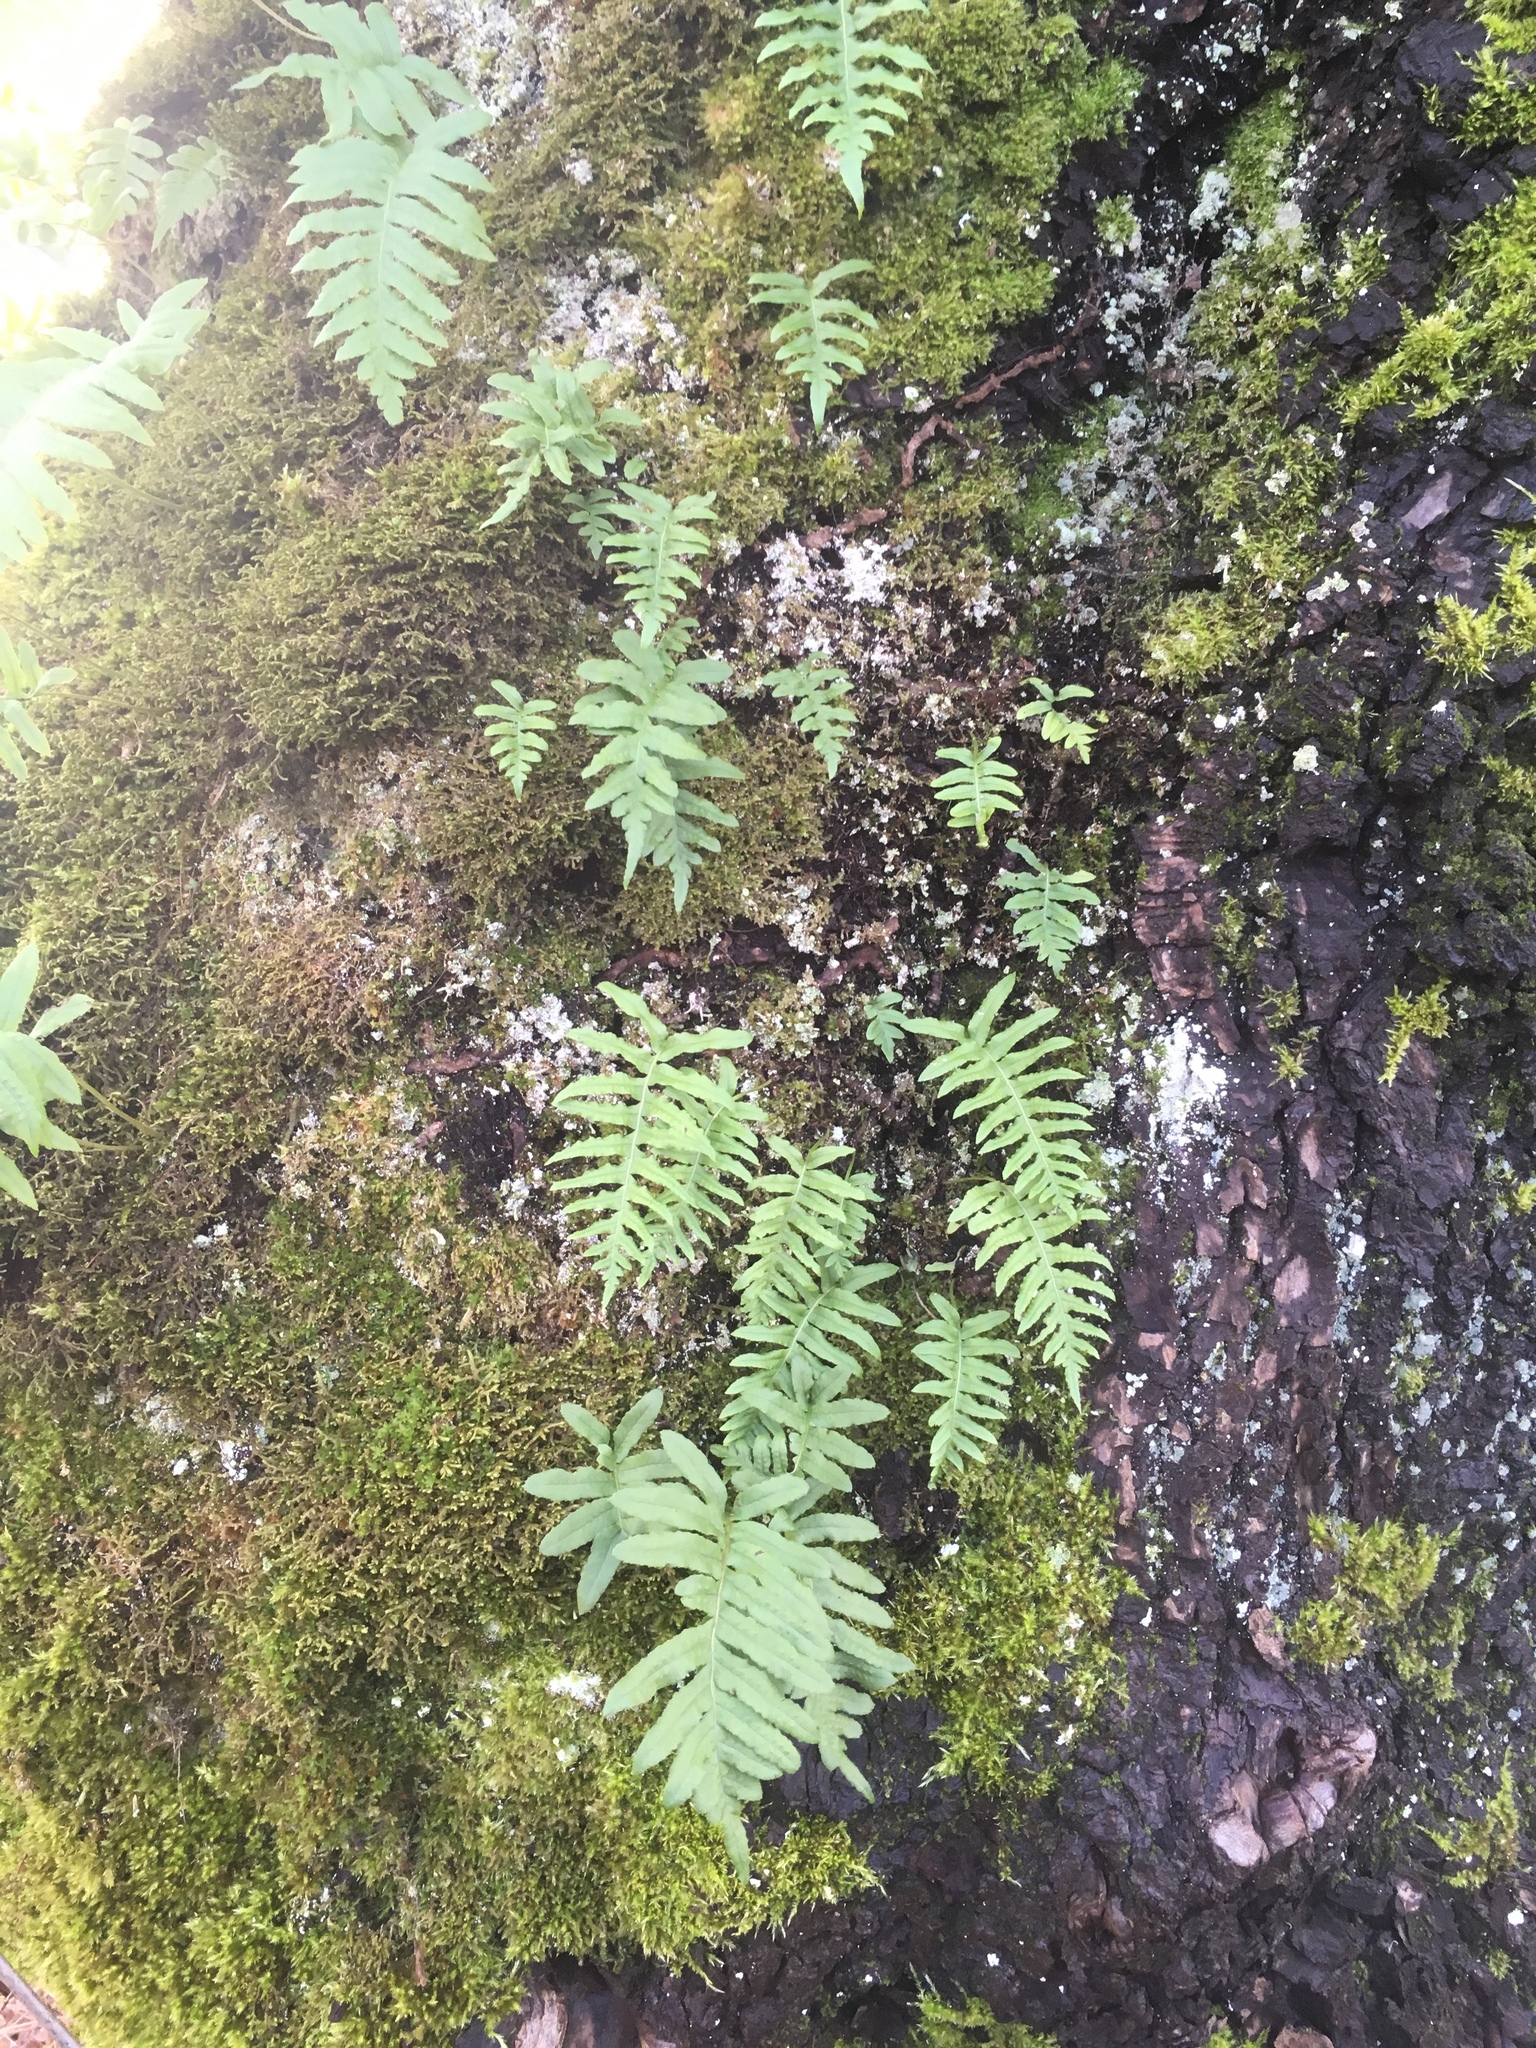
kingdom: Plantae
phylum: Tracheophyta
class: Polypodiopsida
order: Polypodiales
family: Polypodiaceae
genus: Polypodium
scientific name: Polypodium glycyrrhiza
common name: Licorice fern
